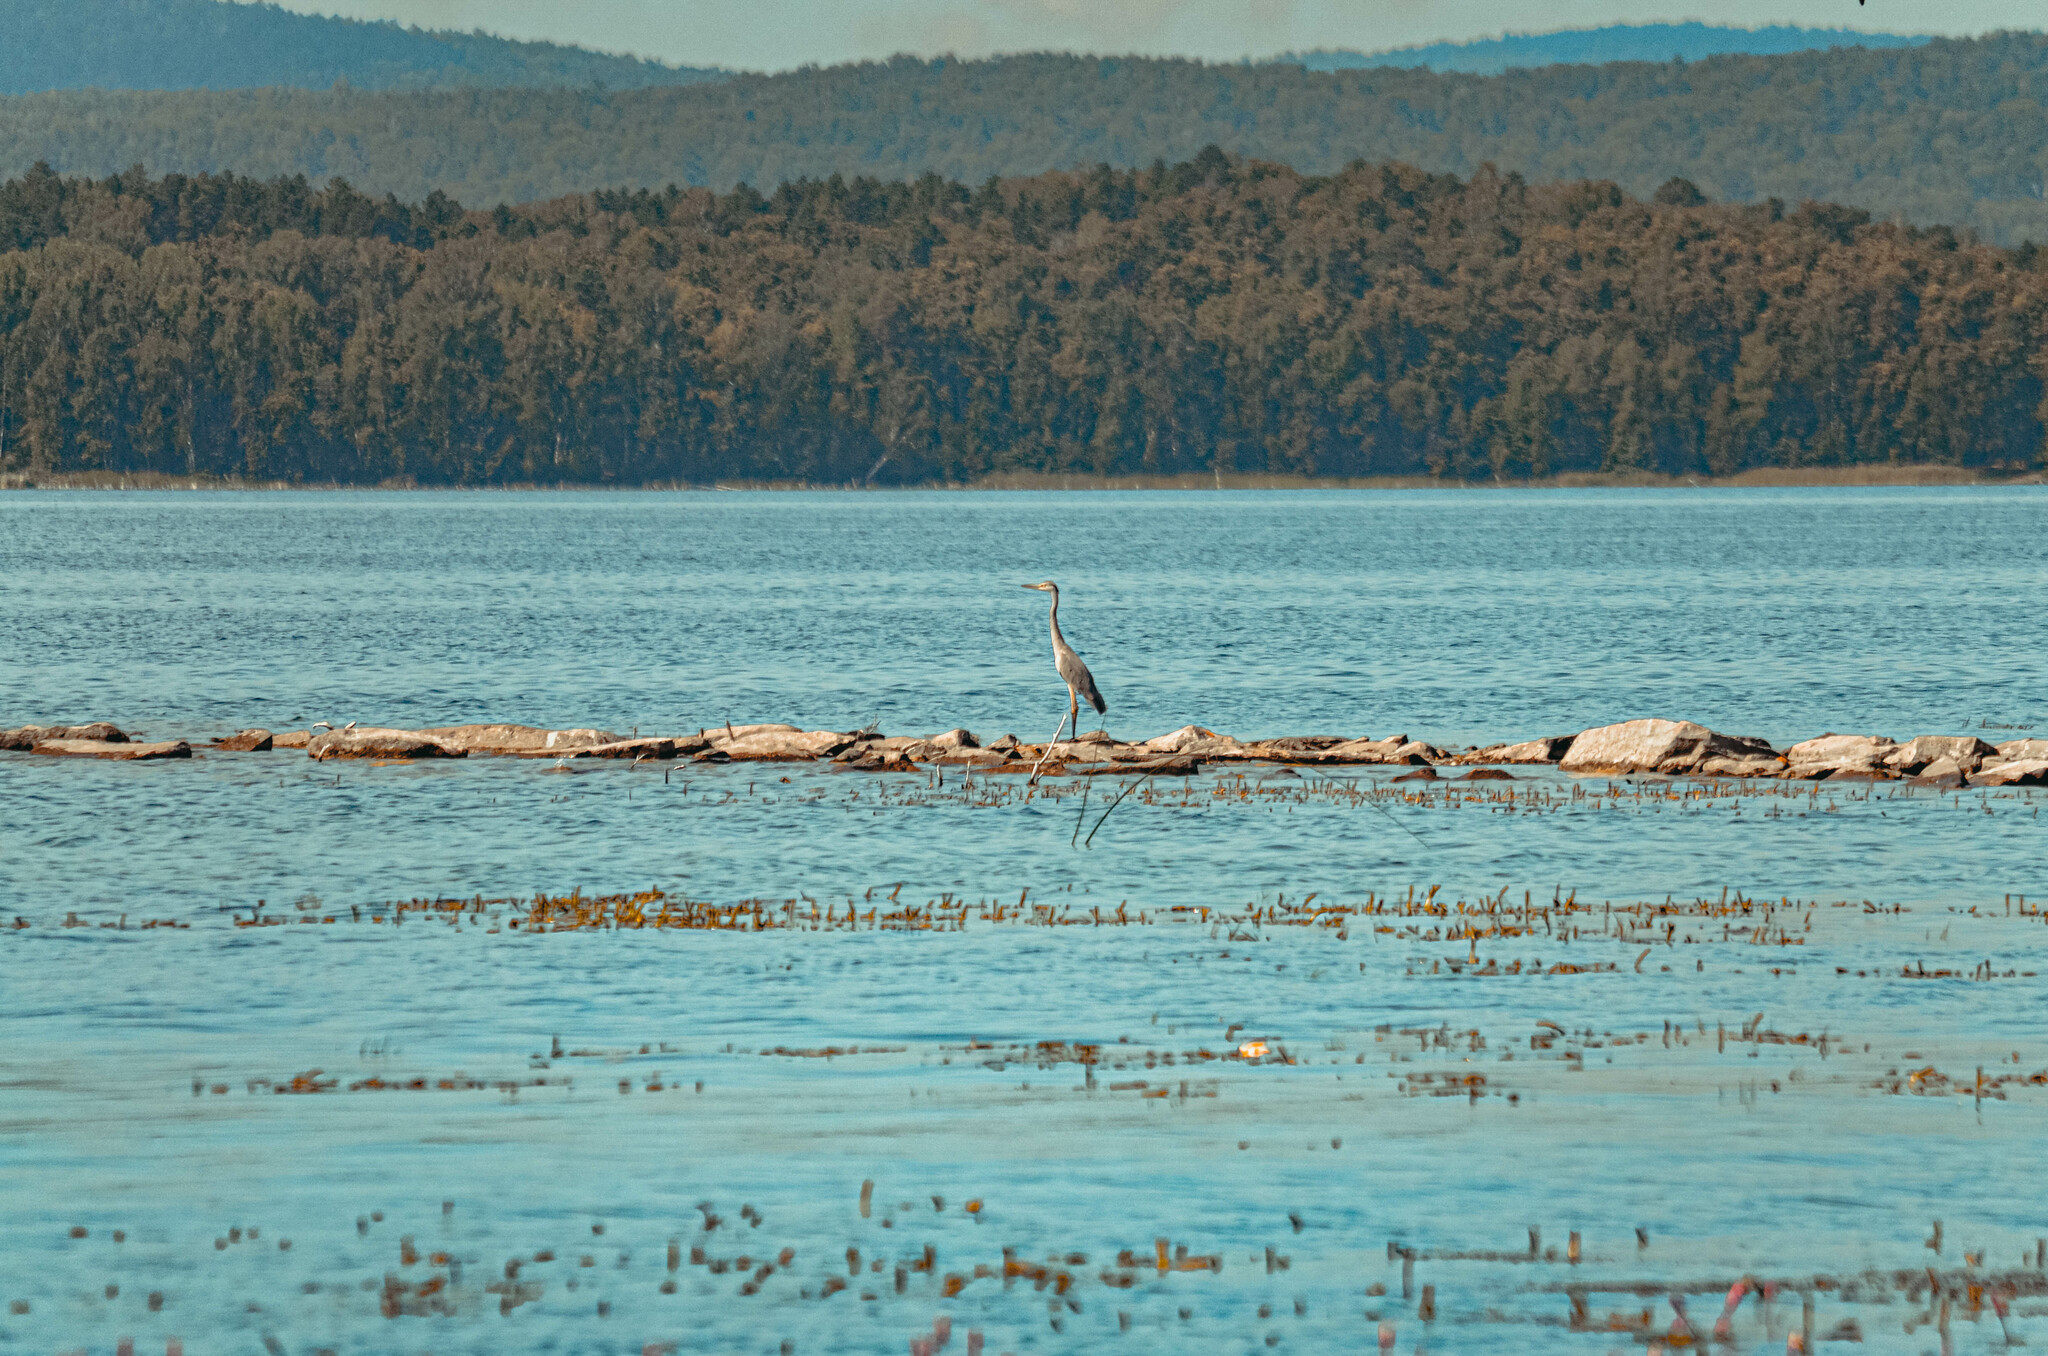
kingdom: Animalia
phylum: Chordata
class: Aves
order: Pelecaniformes
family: Ardeidae
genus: Ardea
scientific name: Ardea cinerea
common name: Grey heron
